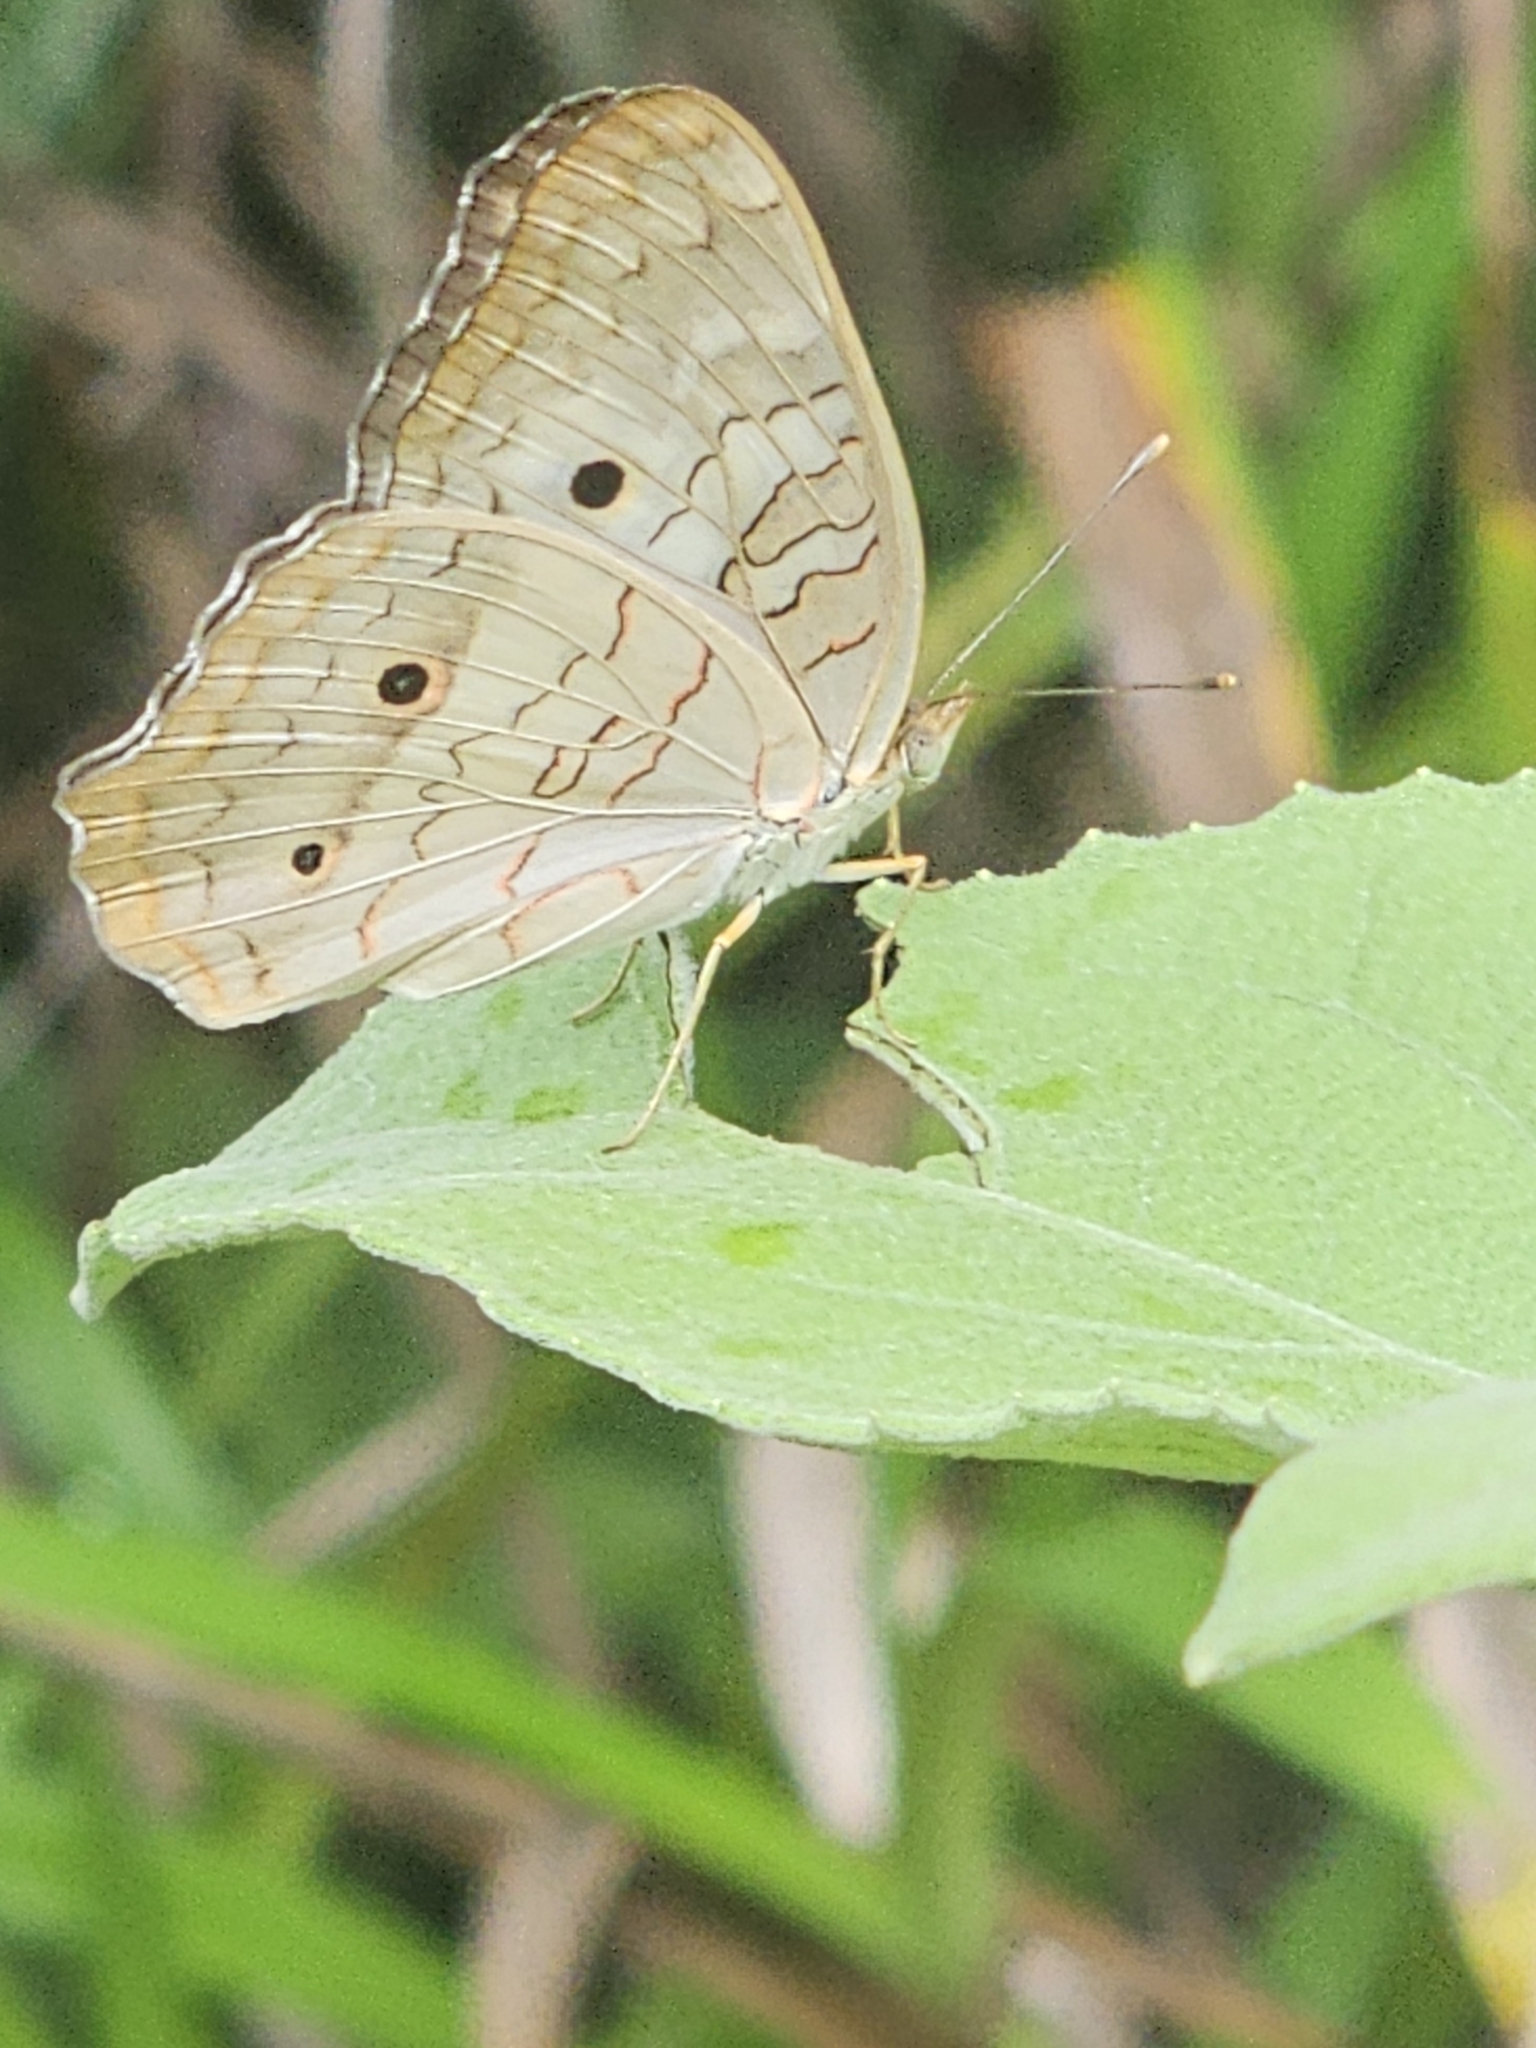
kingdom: Animalia
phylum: Arthropoda
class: Insecta
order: Lepidoptera
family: Nymphalidae
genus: Anartia
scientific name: Anartia jatrophae
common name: White peacock
